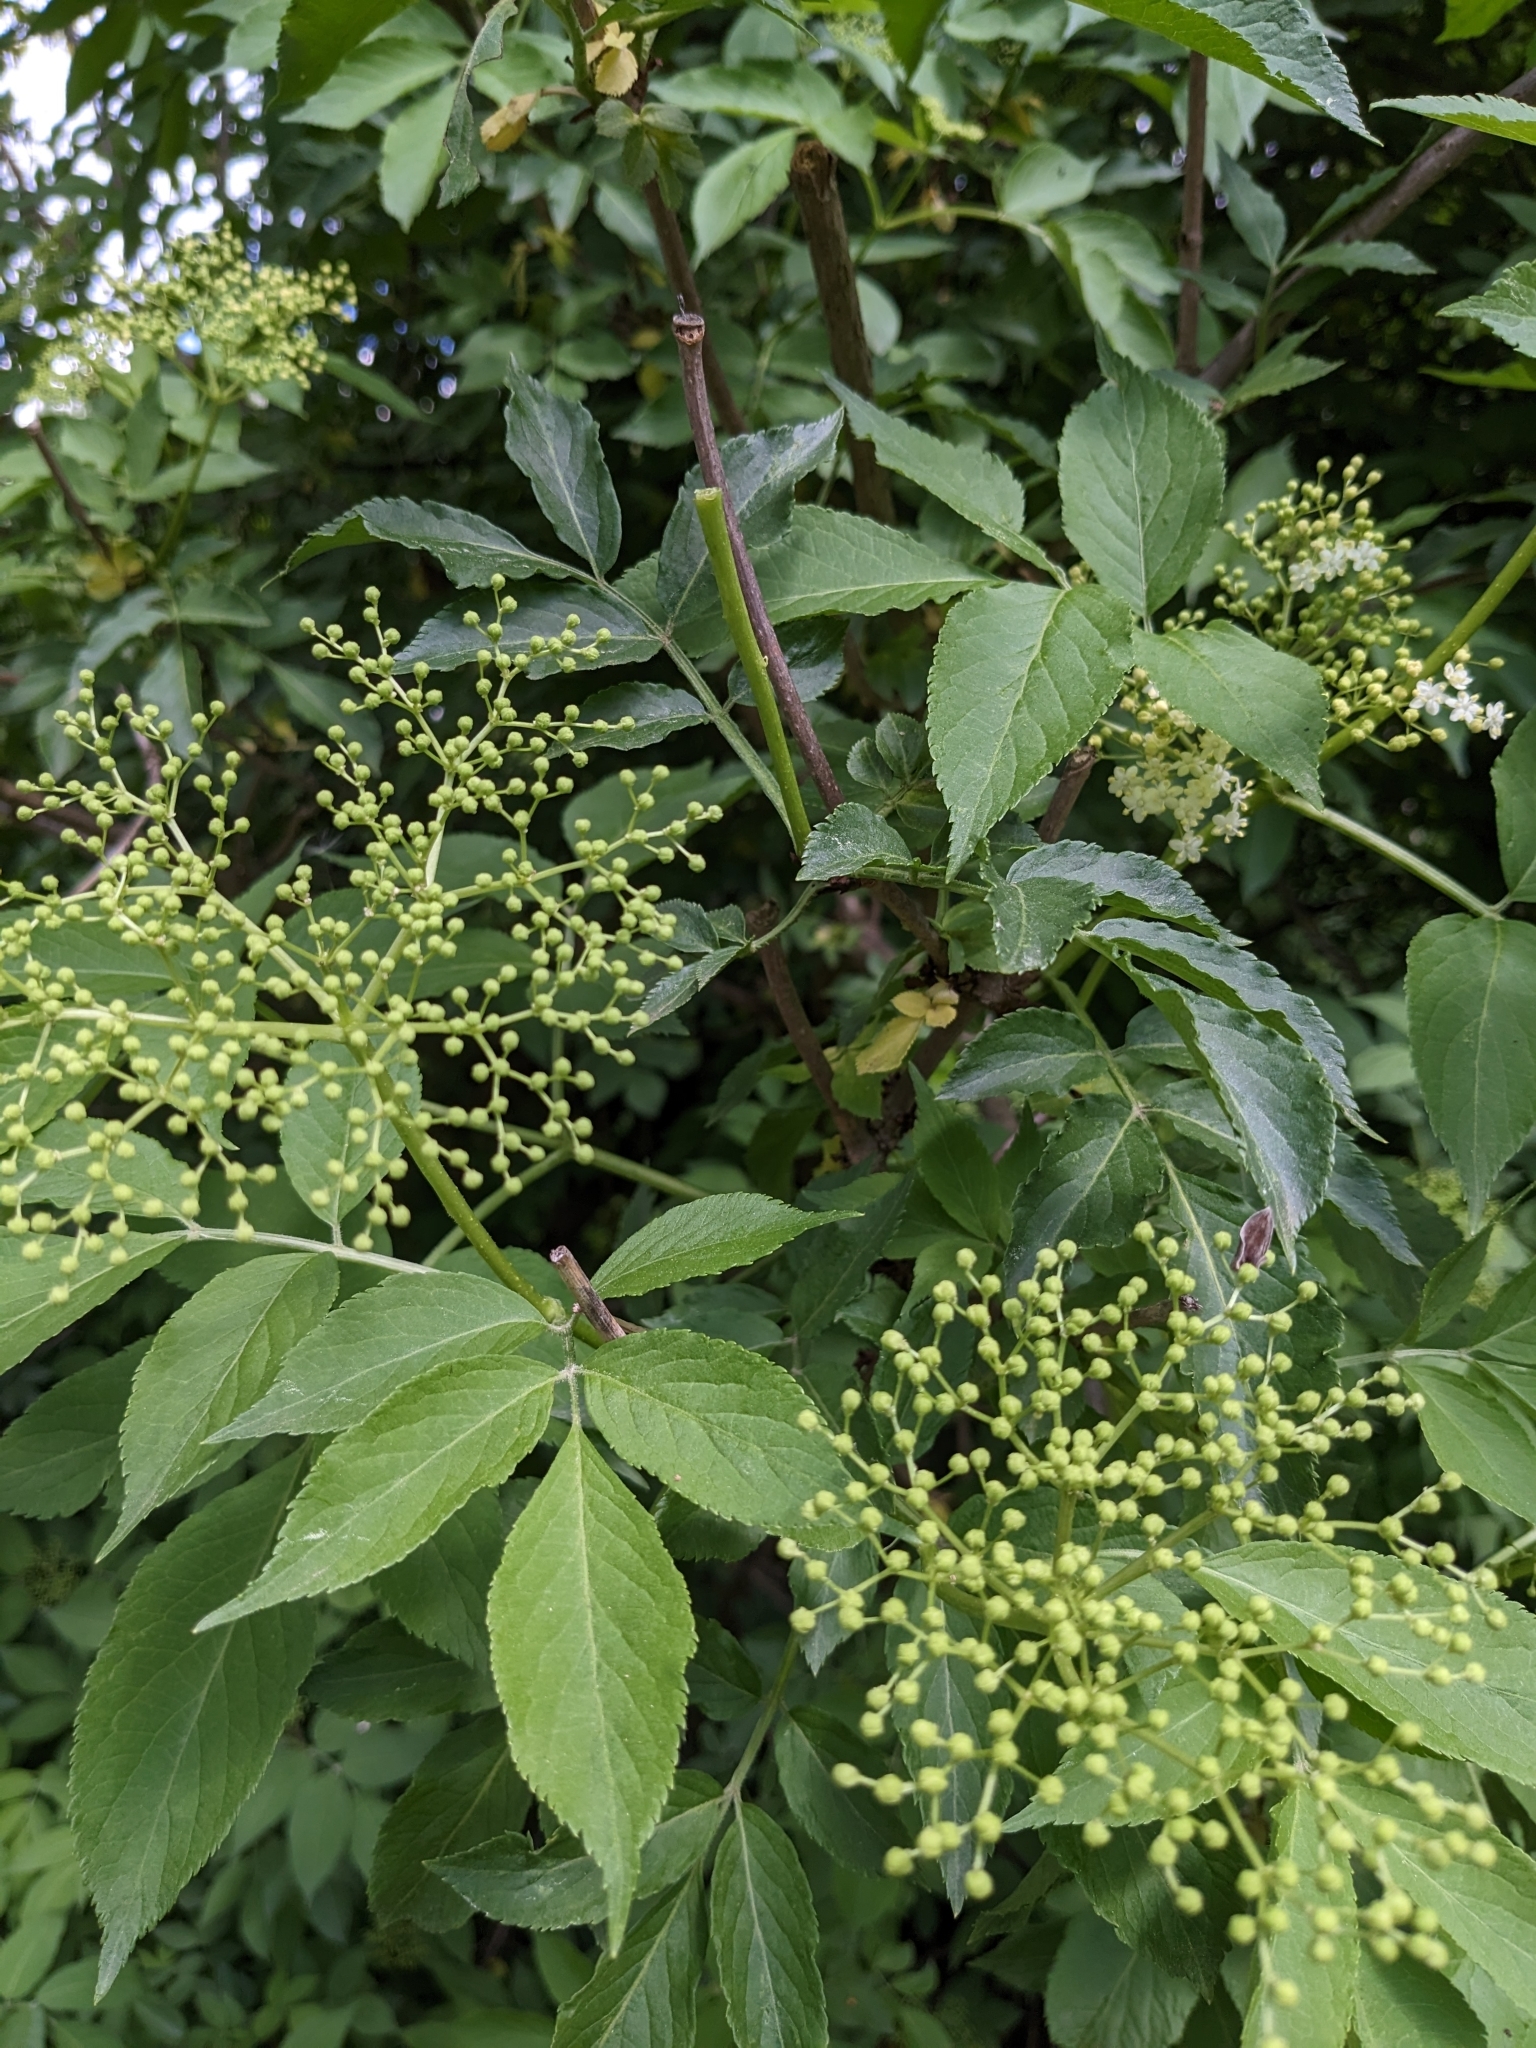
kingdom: Plantae
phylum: Tracheophyta
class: Magnoliopsida
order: Dipsacales
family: Viburnaceae
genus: Sambucus
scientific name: Sambucus nigra
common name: Elder
